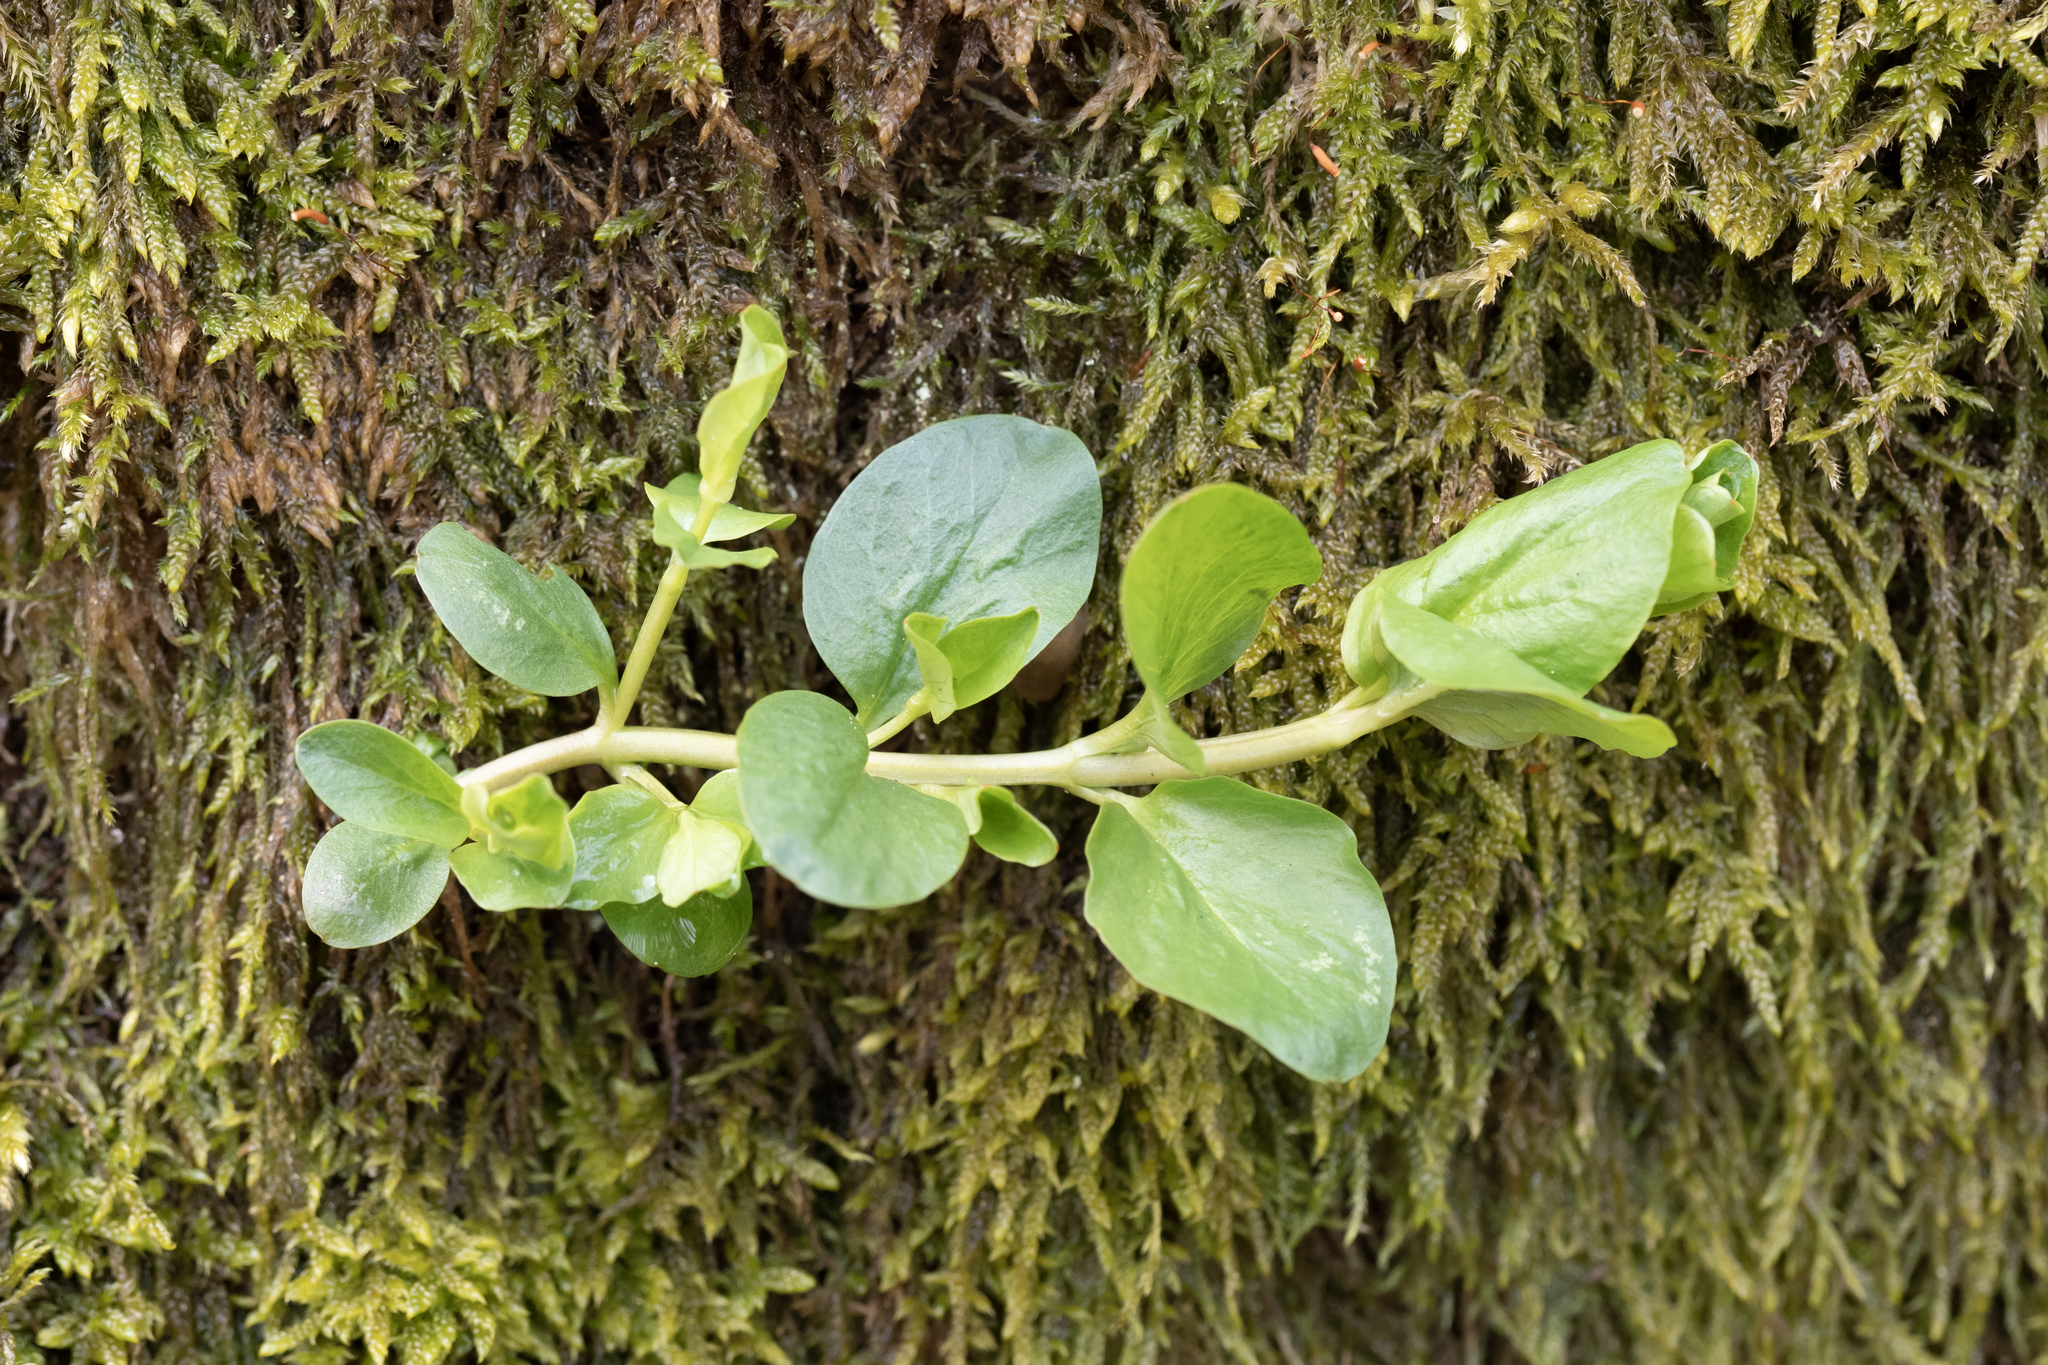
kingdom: Plantae
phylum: Tracheophyta
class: Magnoliopsida
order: Ericales
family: Primulaceae
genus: Lysimachia
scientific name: Lysimachia nummularia
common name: Moneywort
